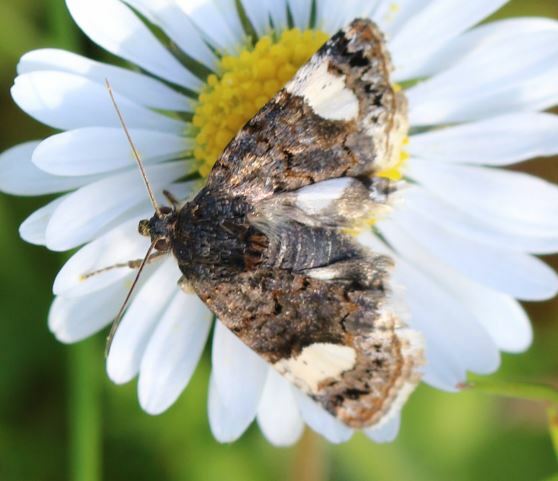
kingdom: Animalia
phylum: Arthropoda
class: Insecta
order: Lepidoptera
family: Erebidae
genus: Tyta
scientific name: Tyta luctuosa
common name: Four-spotted
